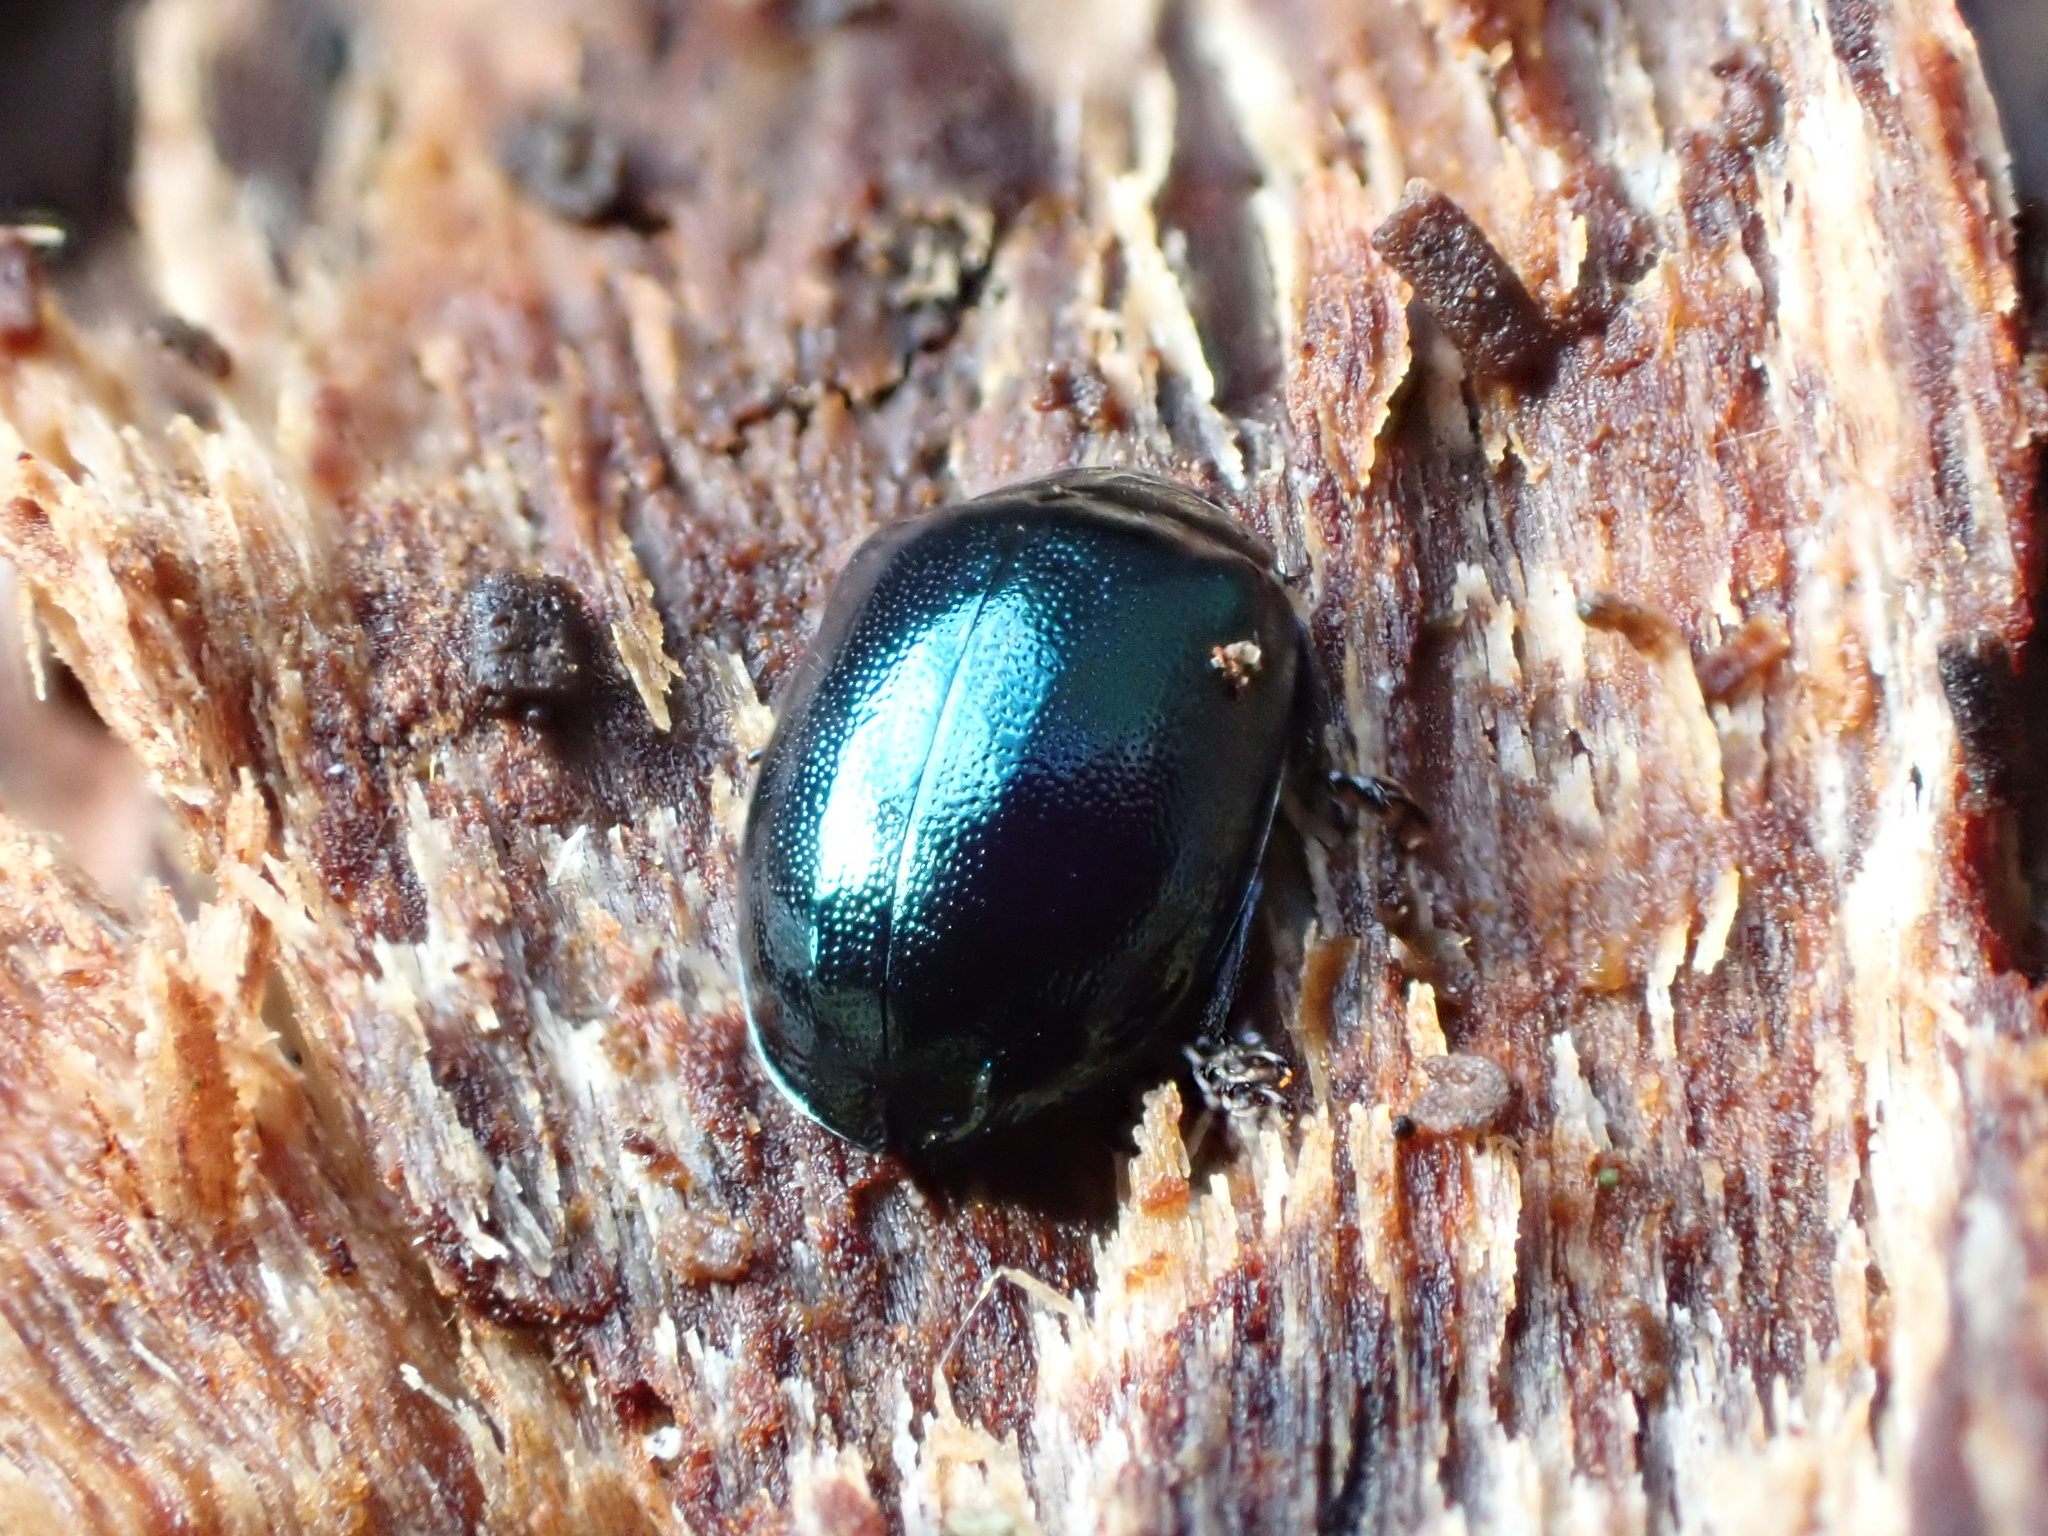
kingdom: Animalia
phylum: Arthropoda
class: Insecta
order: Coleoptera
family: Chrysomelidae
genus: Plagiodera
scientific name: Plagiodera versicolora
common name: Imported willow leaf beetle
